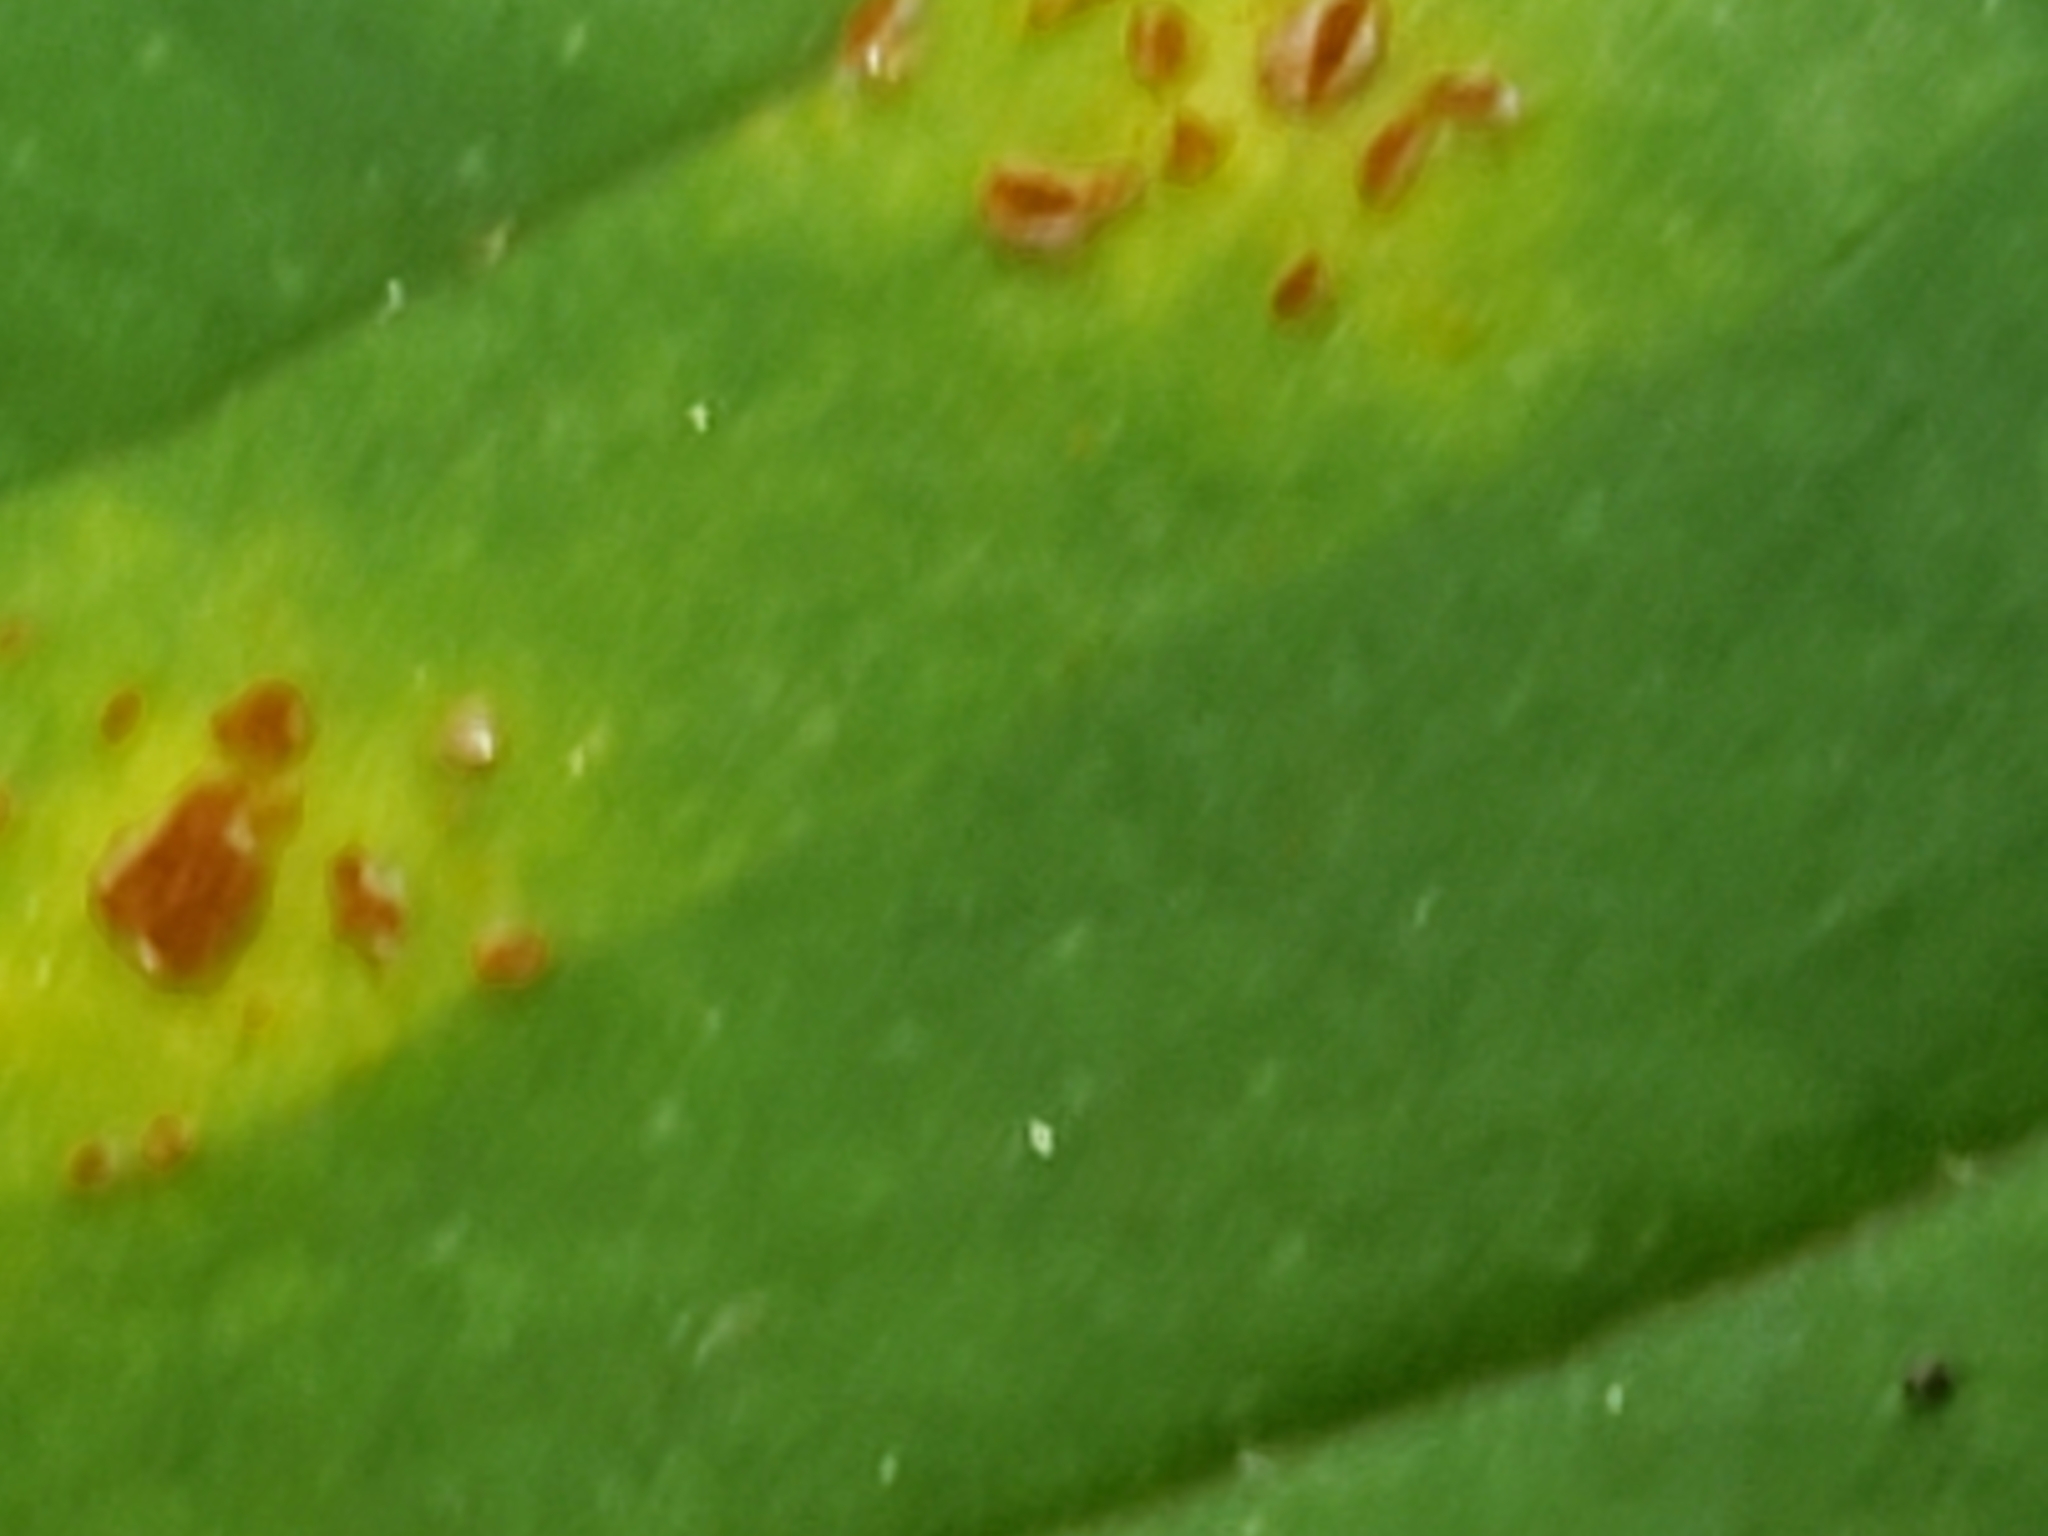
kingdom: Fungi
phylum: Basidiomycota
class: Pucciniomycetes
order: Pucciniales
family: Pucciniaceae
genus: Uromyces
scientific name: Uromyces ari-triphylli
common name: Jack-in-the-pulpit rust
